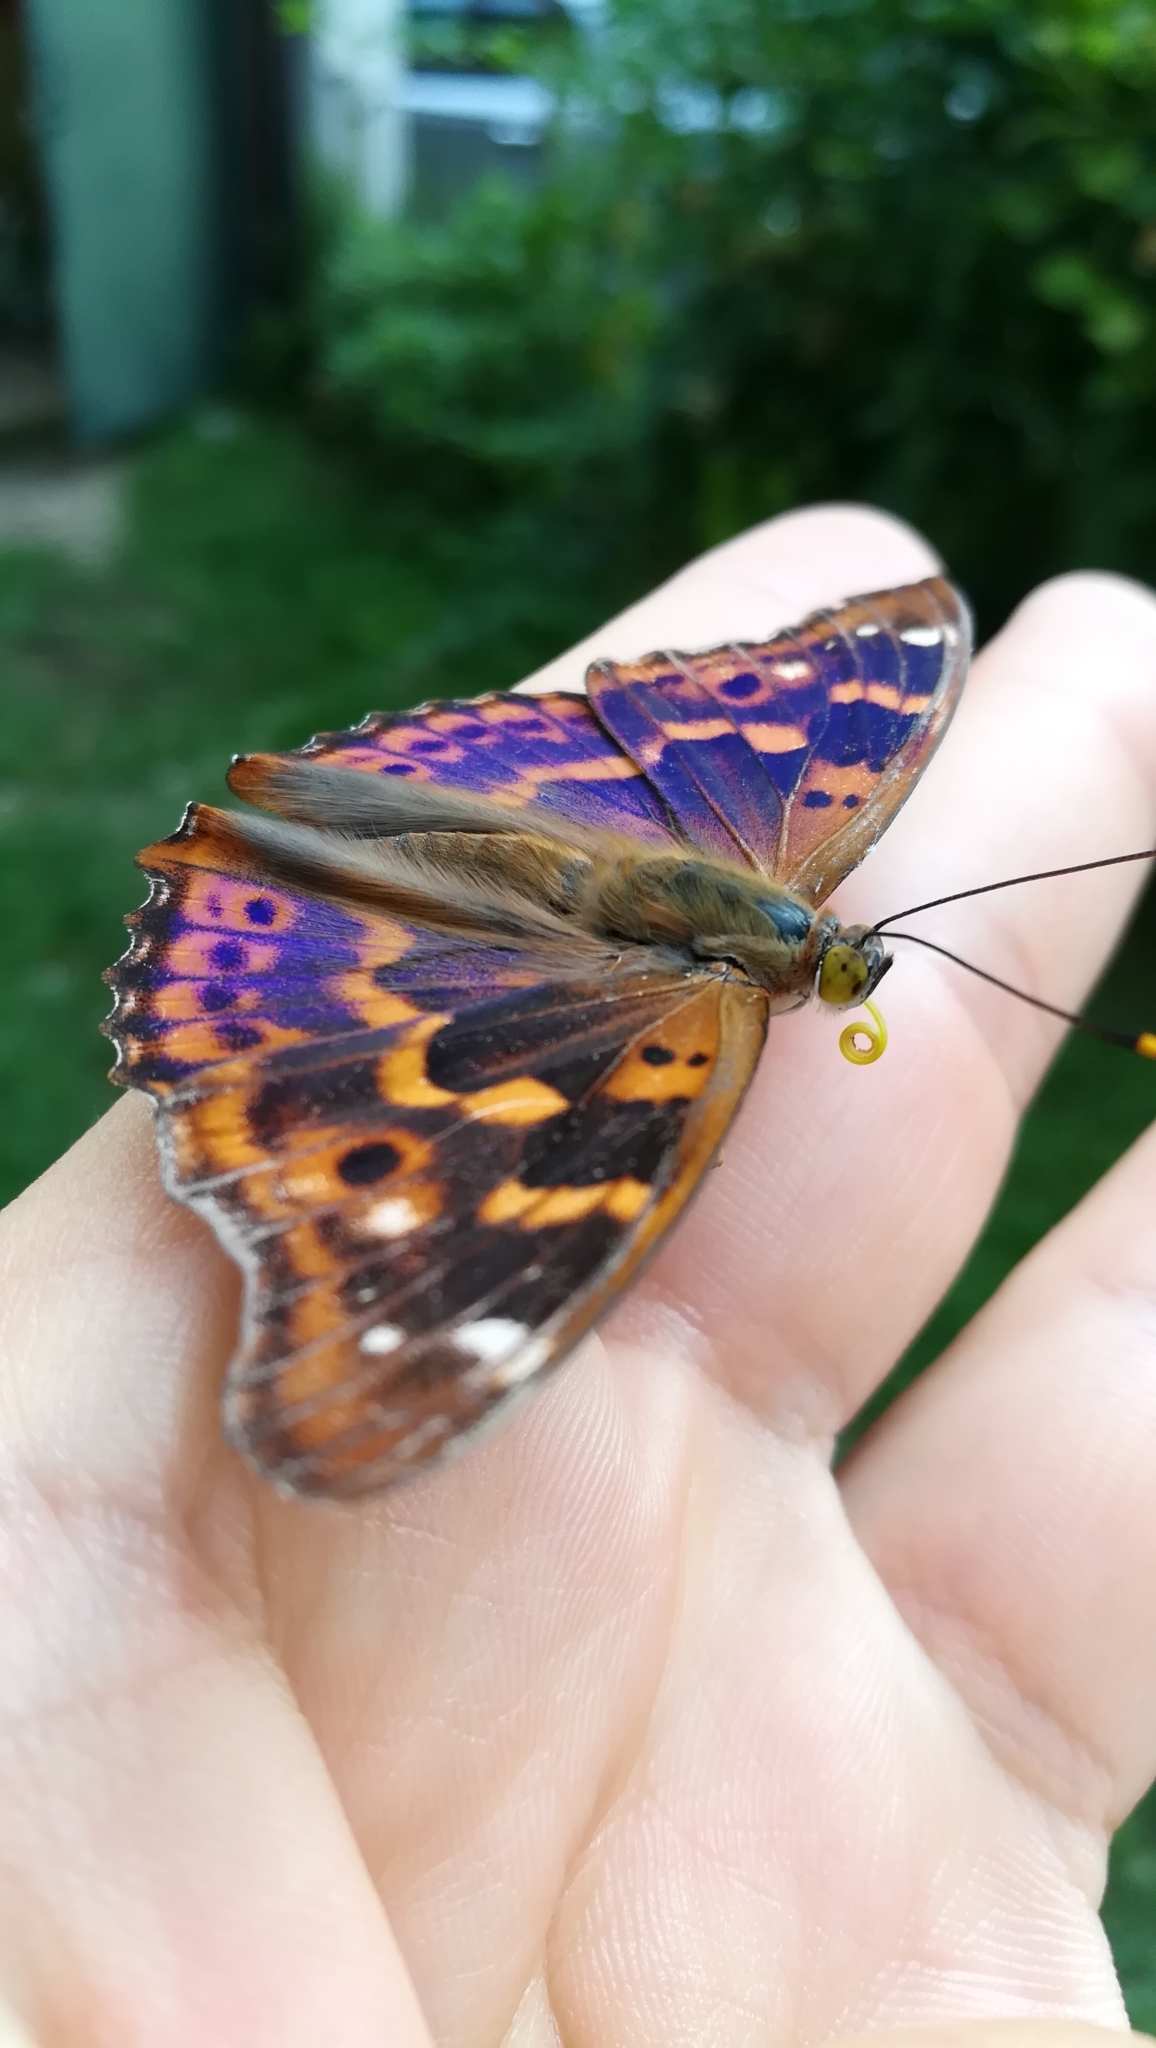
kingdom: Animalia
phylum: Arthropoda
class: Insecta
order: Lepidoptera
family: Nymphalidae
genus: Apatura
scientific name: Apatura ilia
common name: Lesser purple emperor
